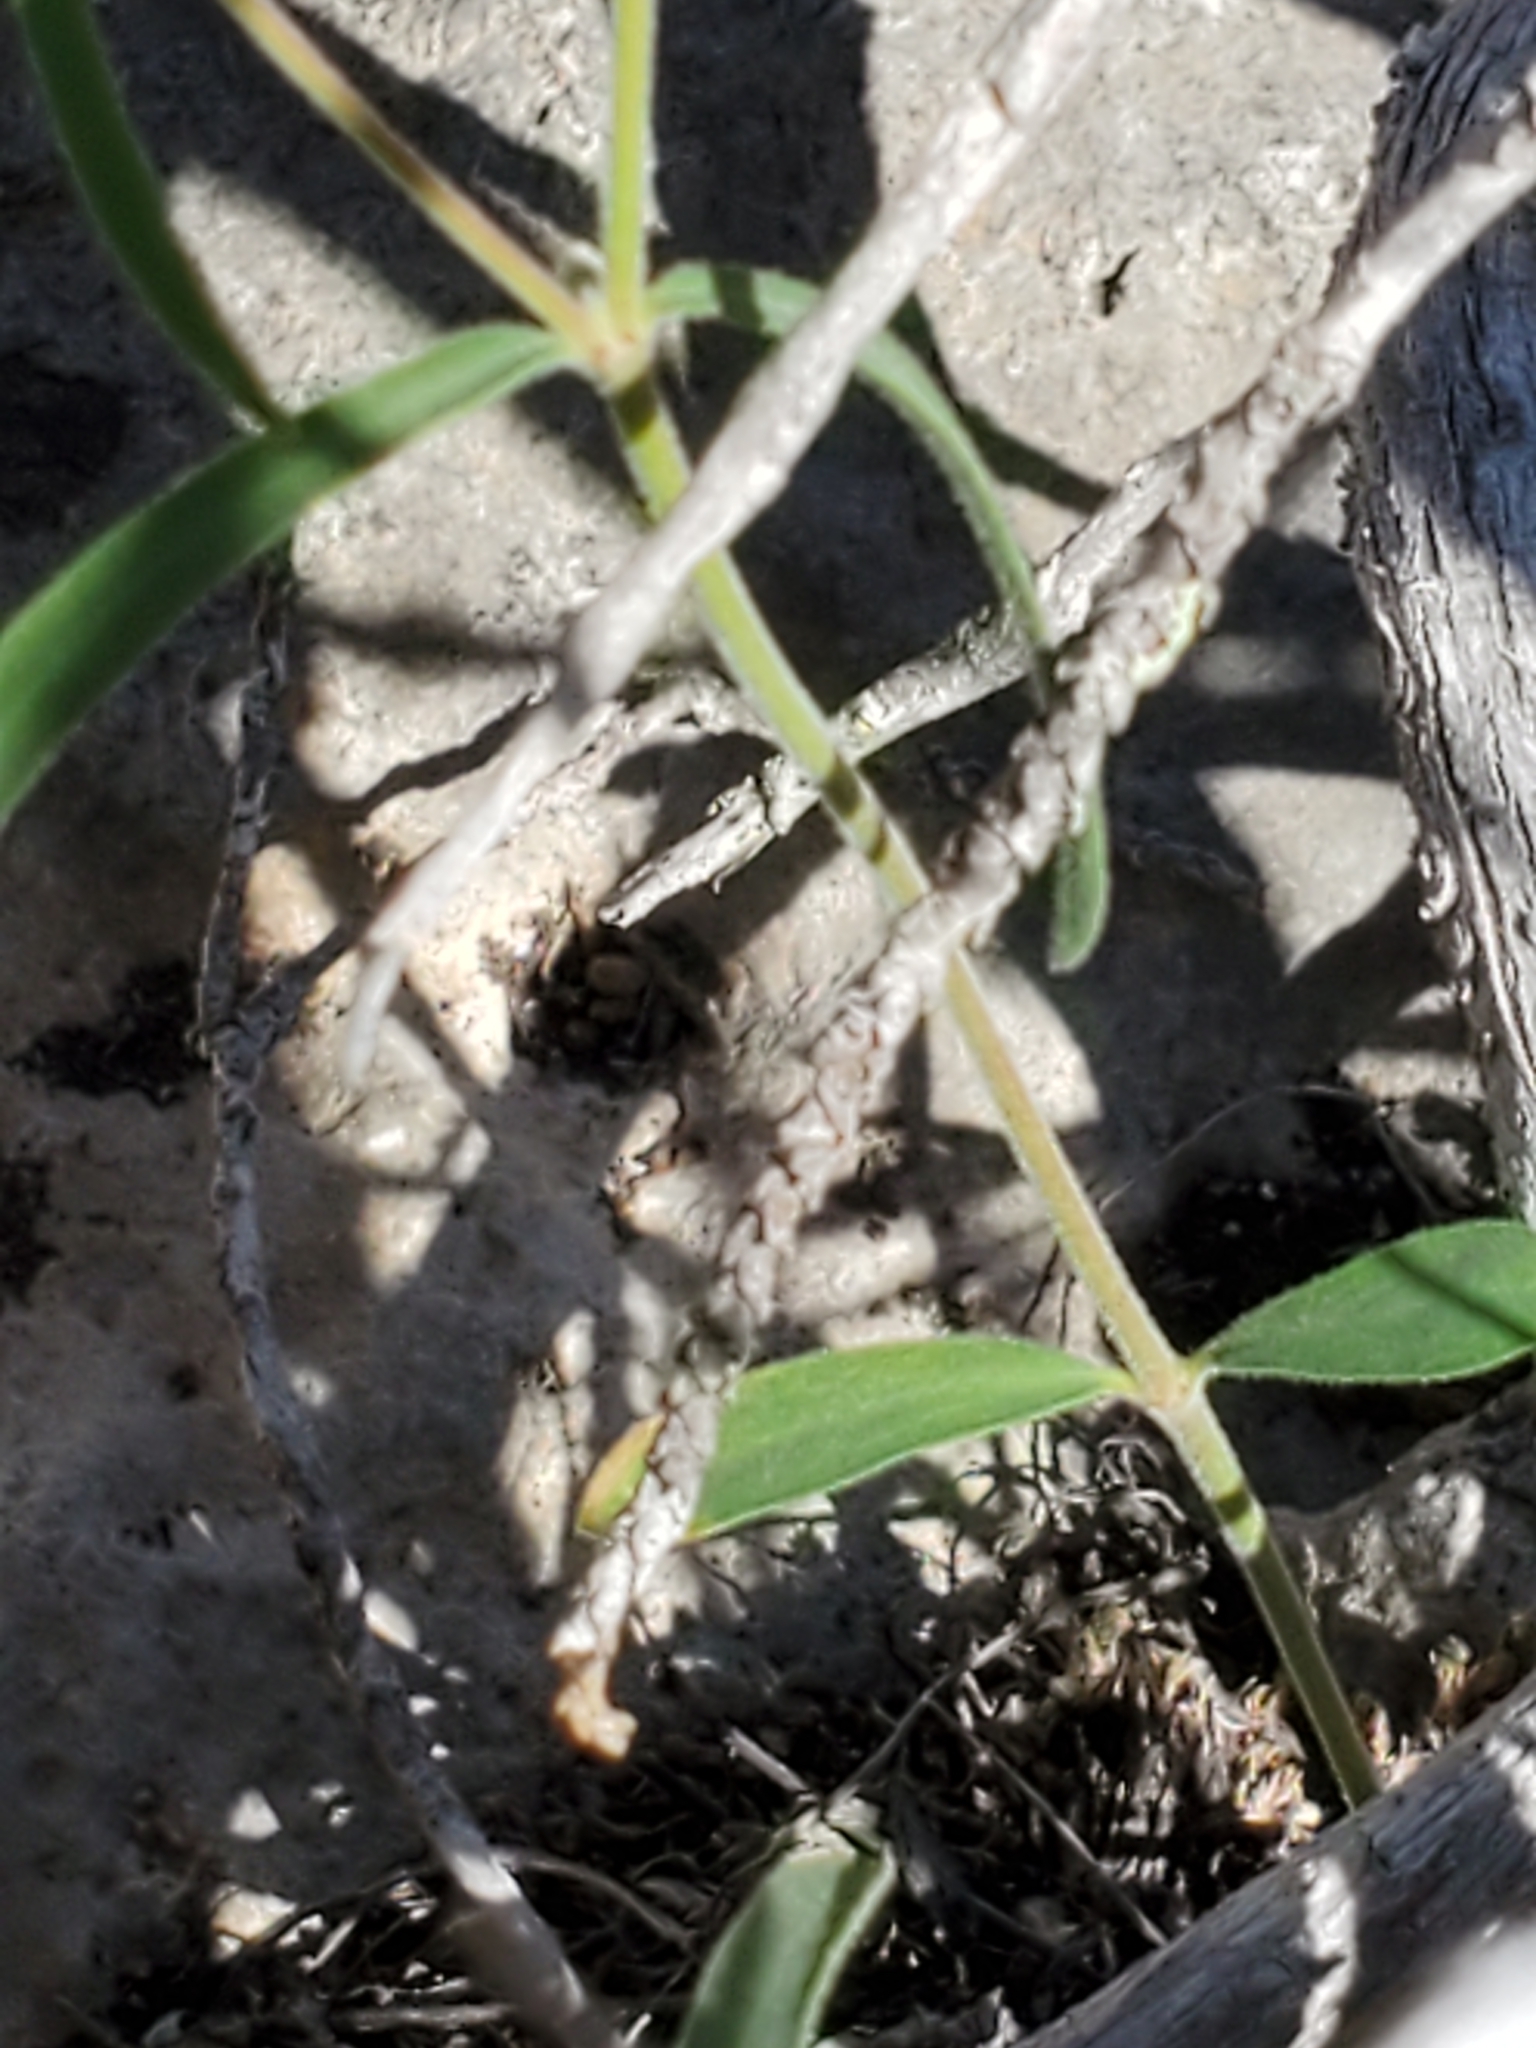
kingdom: Plantae
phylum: Tracheophyta
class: Magnoliopsida
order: Malpighiales
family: Euphorbiaceae
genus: Euphorbia
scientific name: Euphorbia angusta
